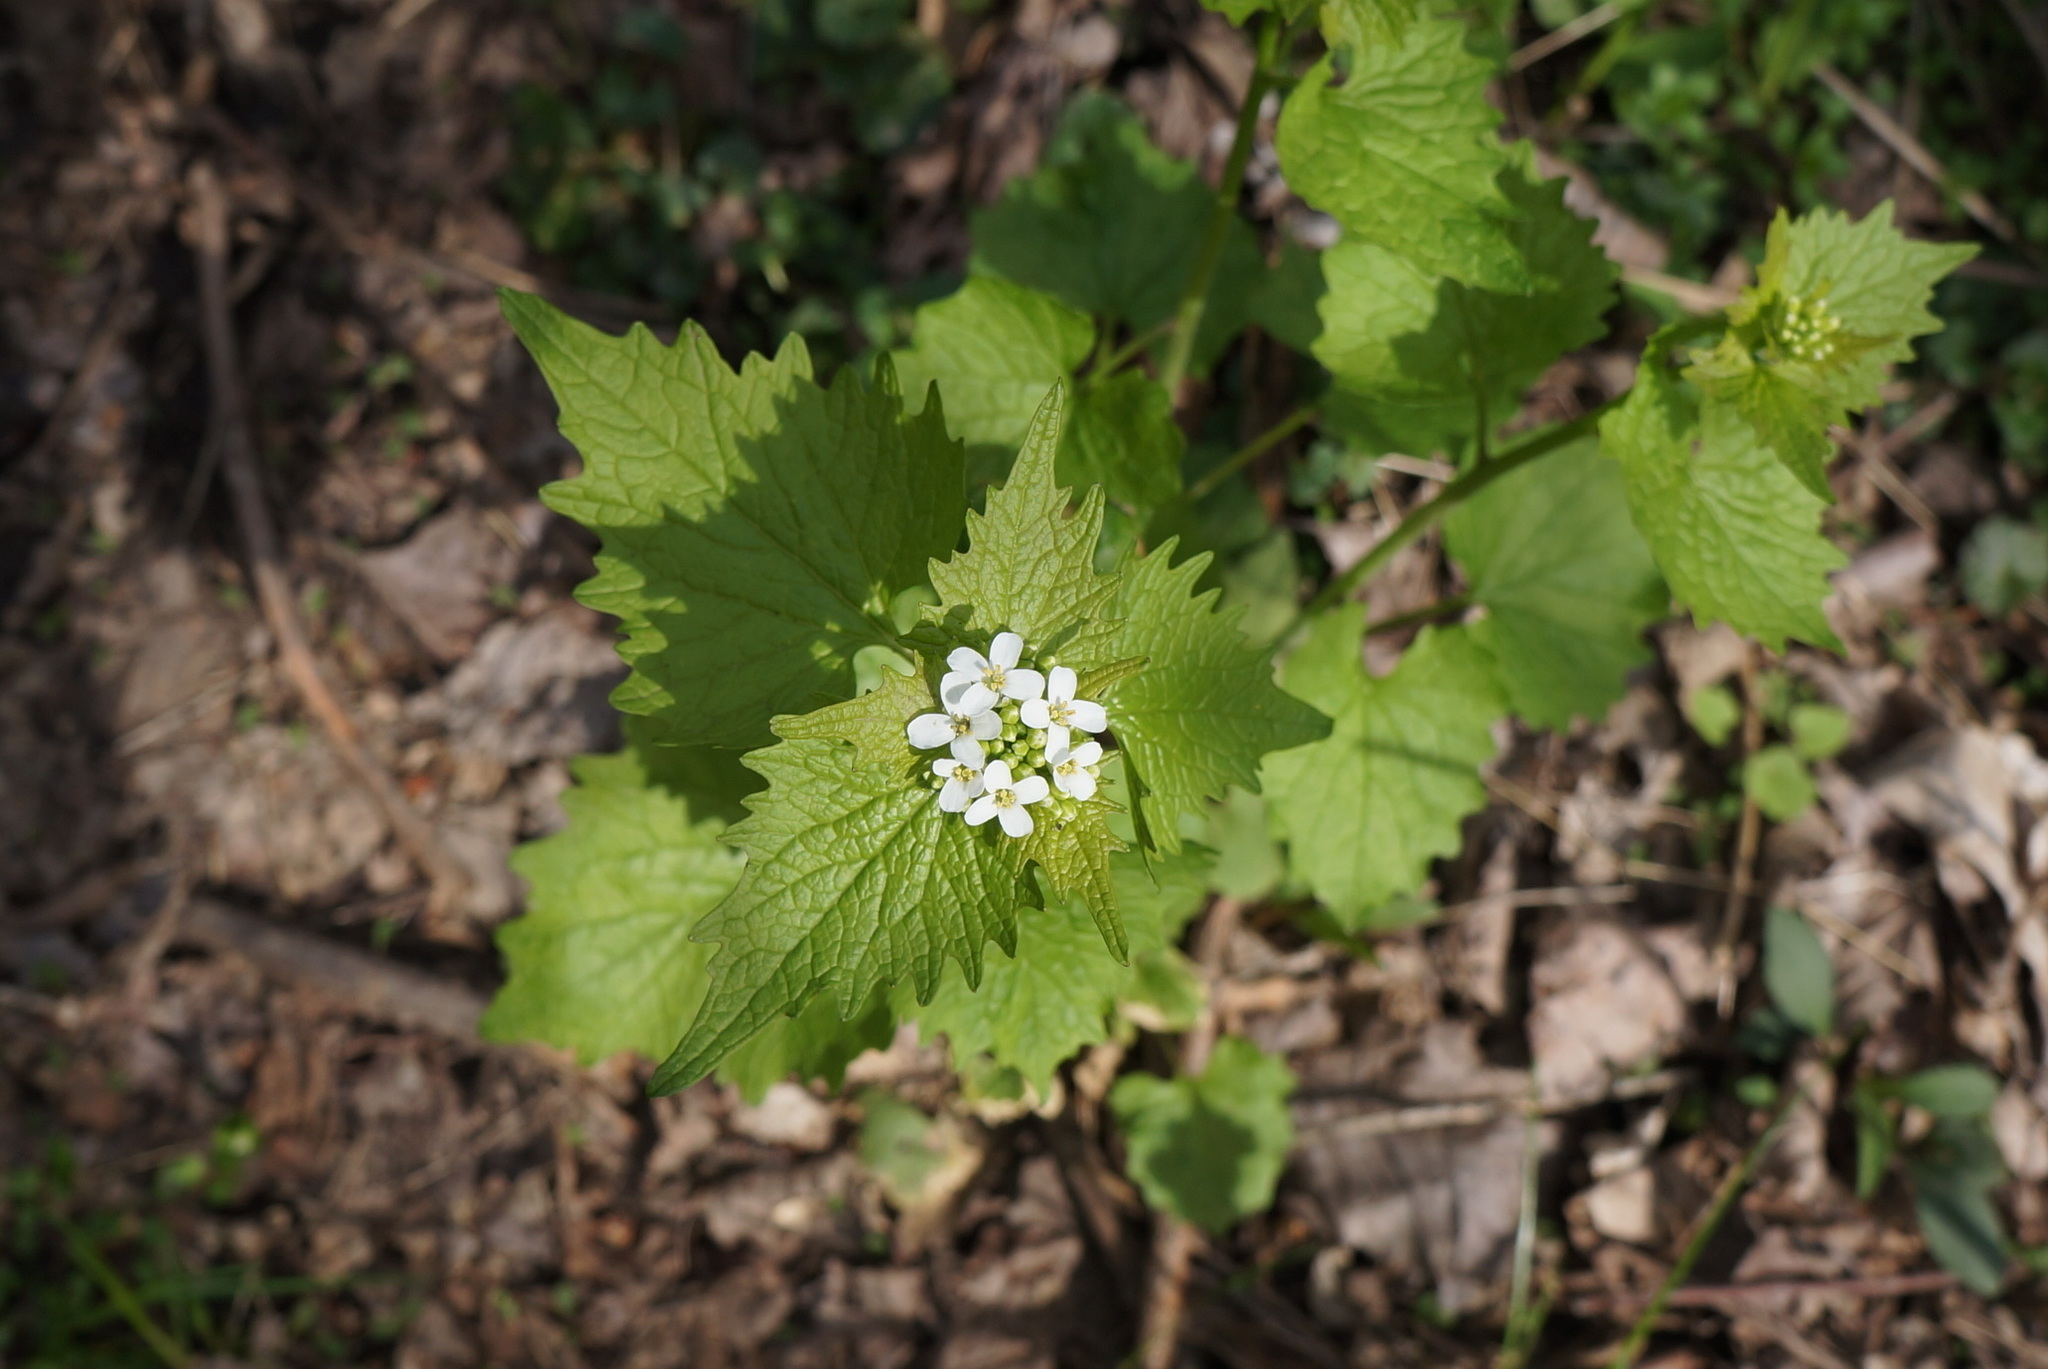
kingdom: Plantae
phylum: Tracheophyta
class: Magnoliopsida
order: Brassicales
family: Brassicaceae
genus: Alliaria
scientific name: Alliaria petiolata
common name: Garlic mustard
